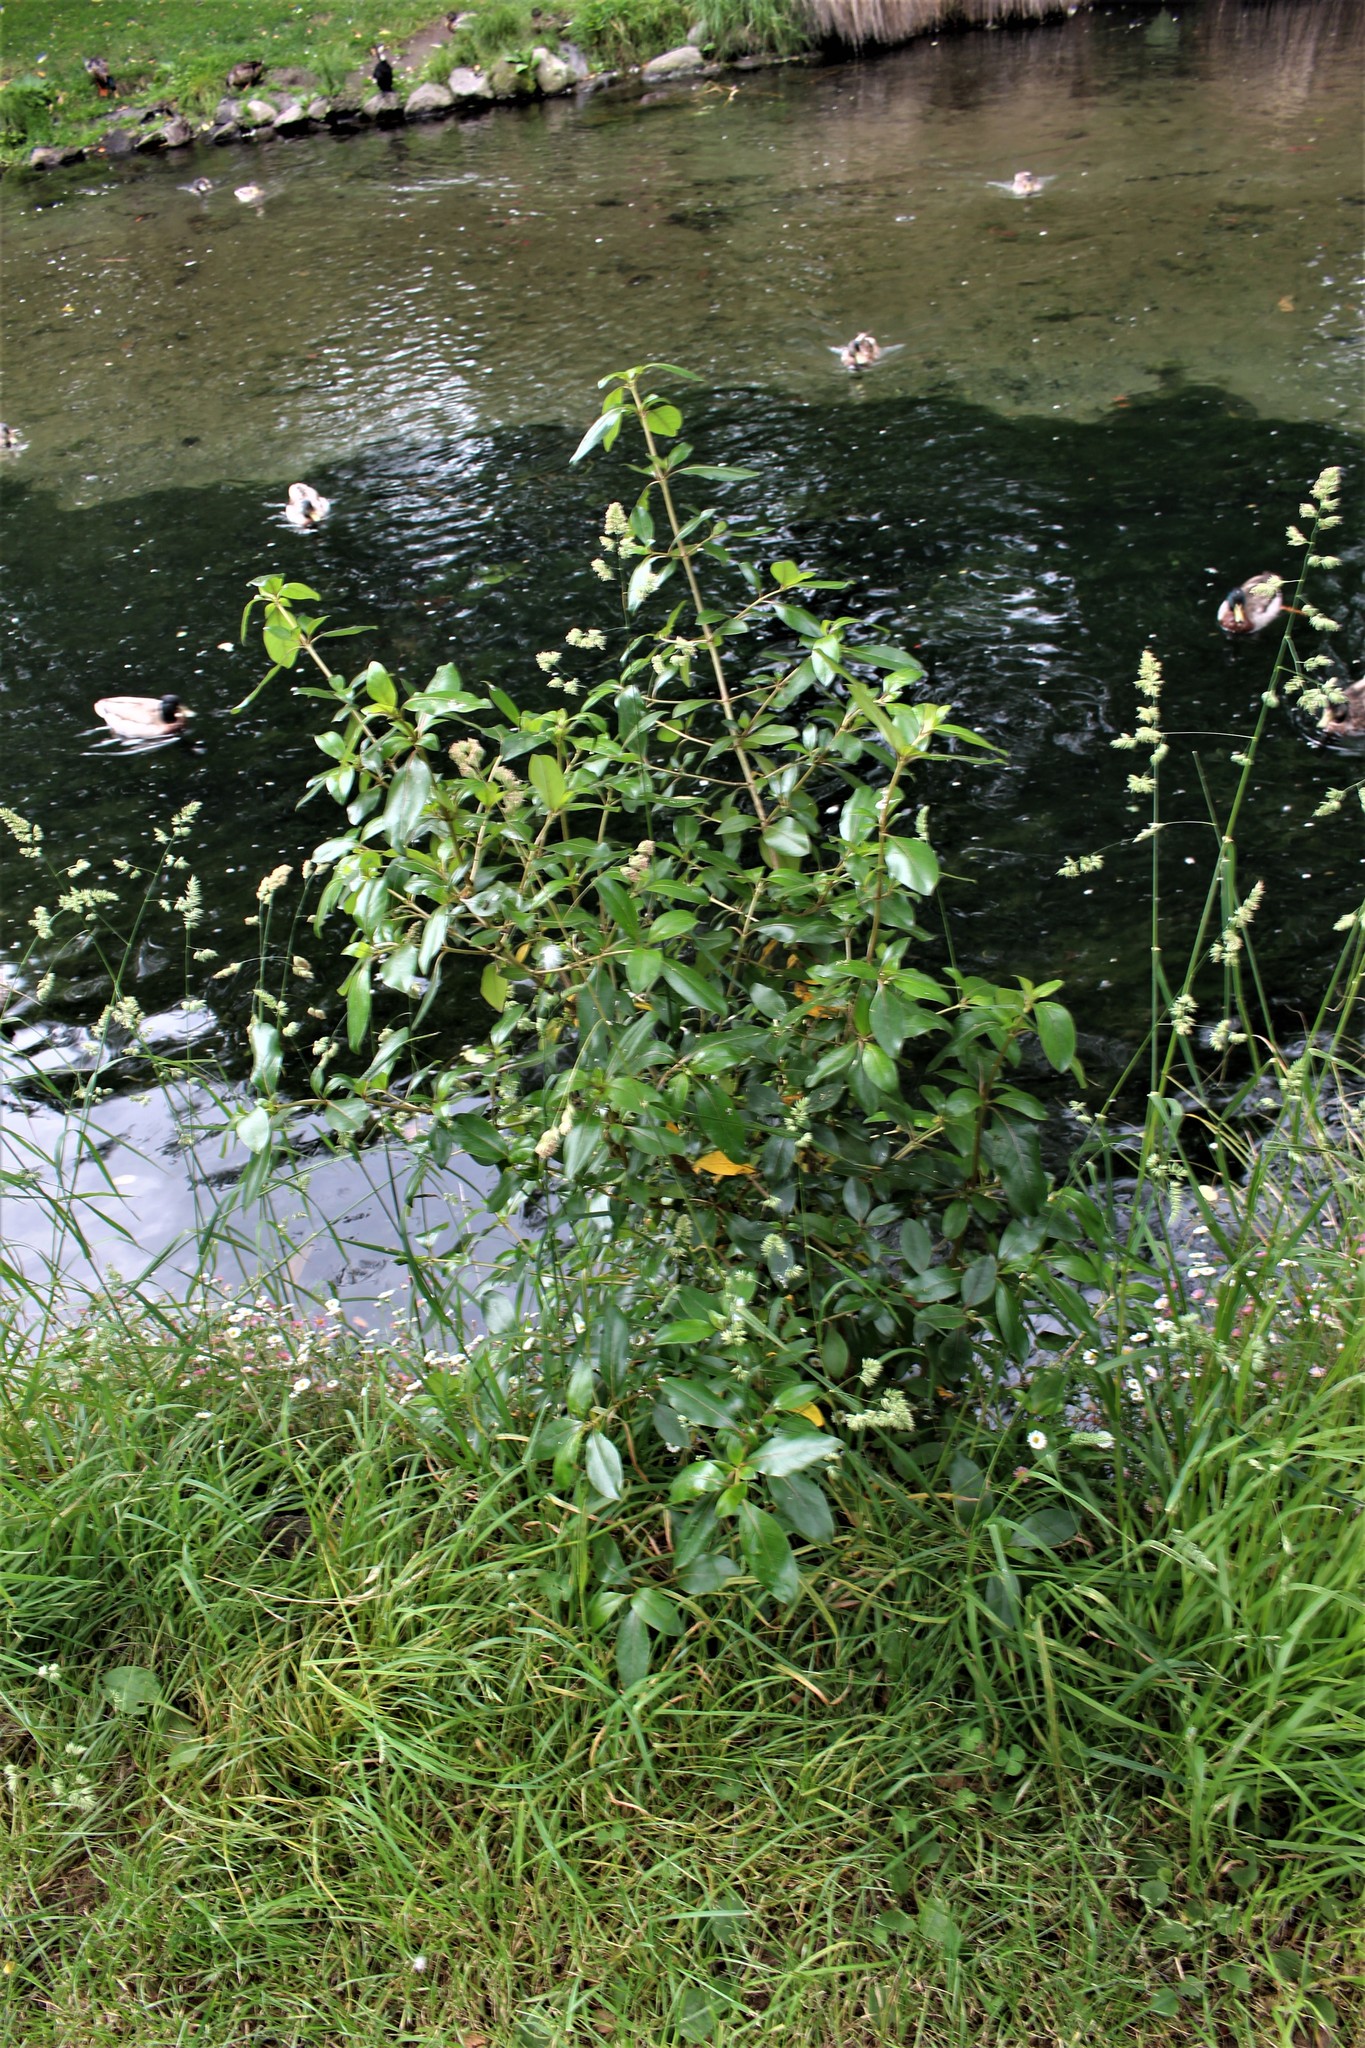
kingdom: Plantae
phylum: Tracheophyta
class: Magnoliopsida
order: Gentianales
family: Rubiaceae
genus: Coprosma
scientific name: Coprosma robusta
